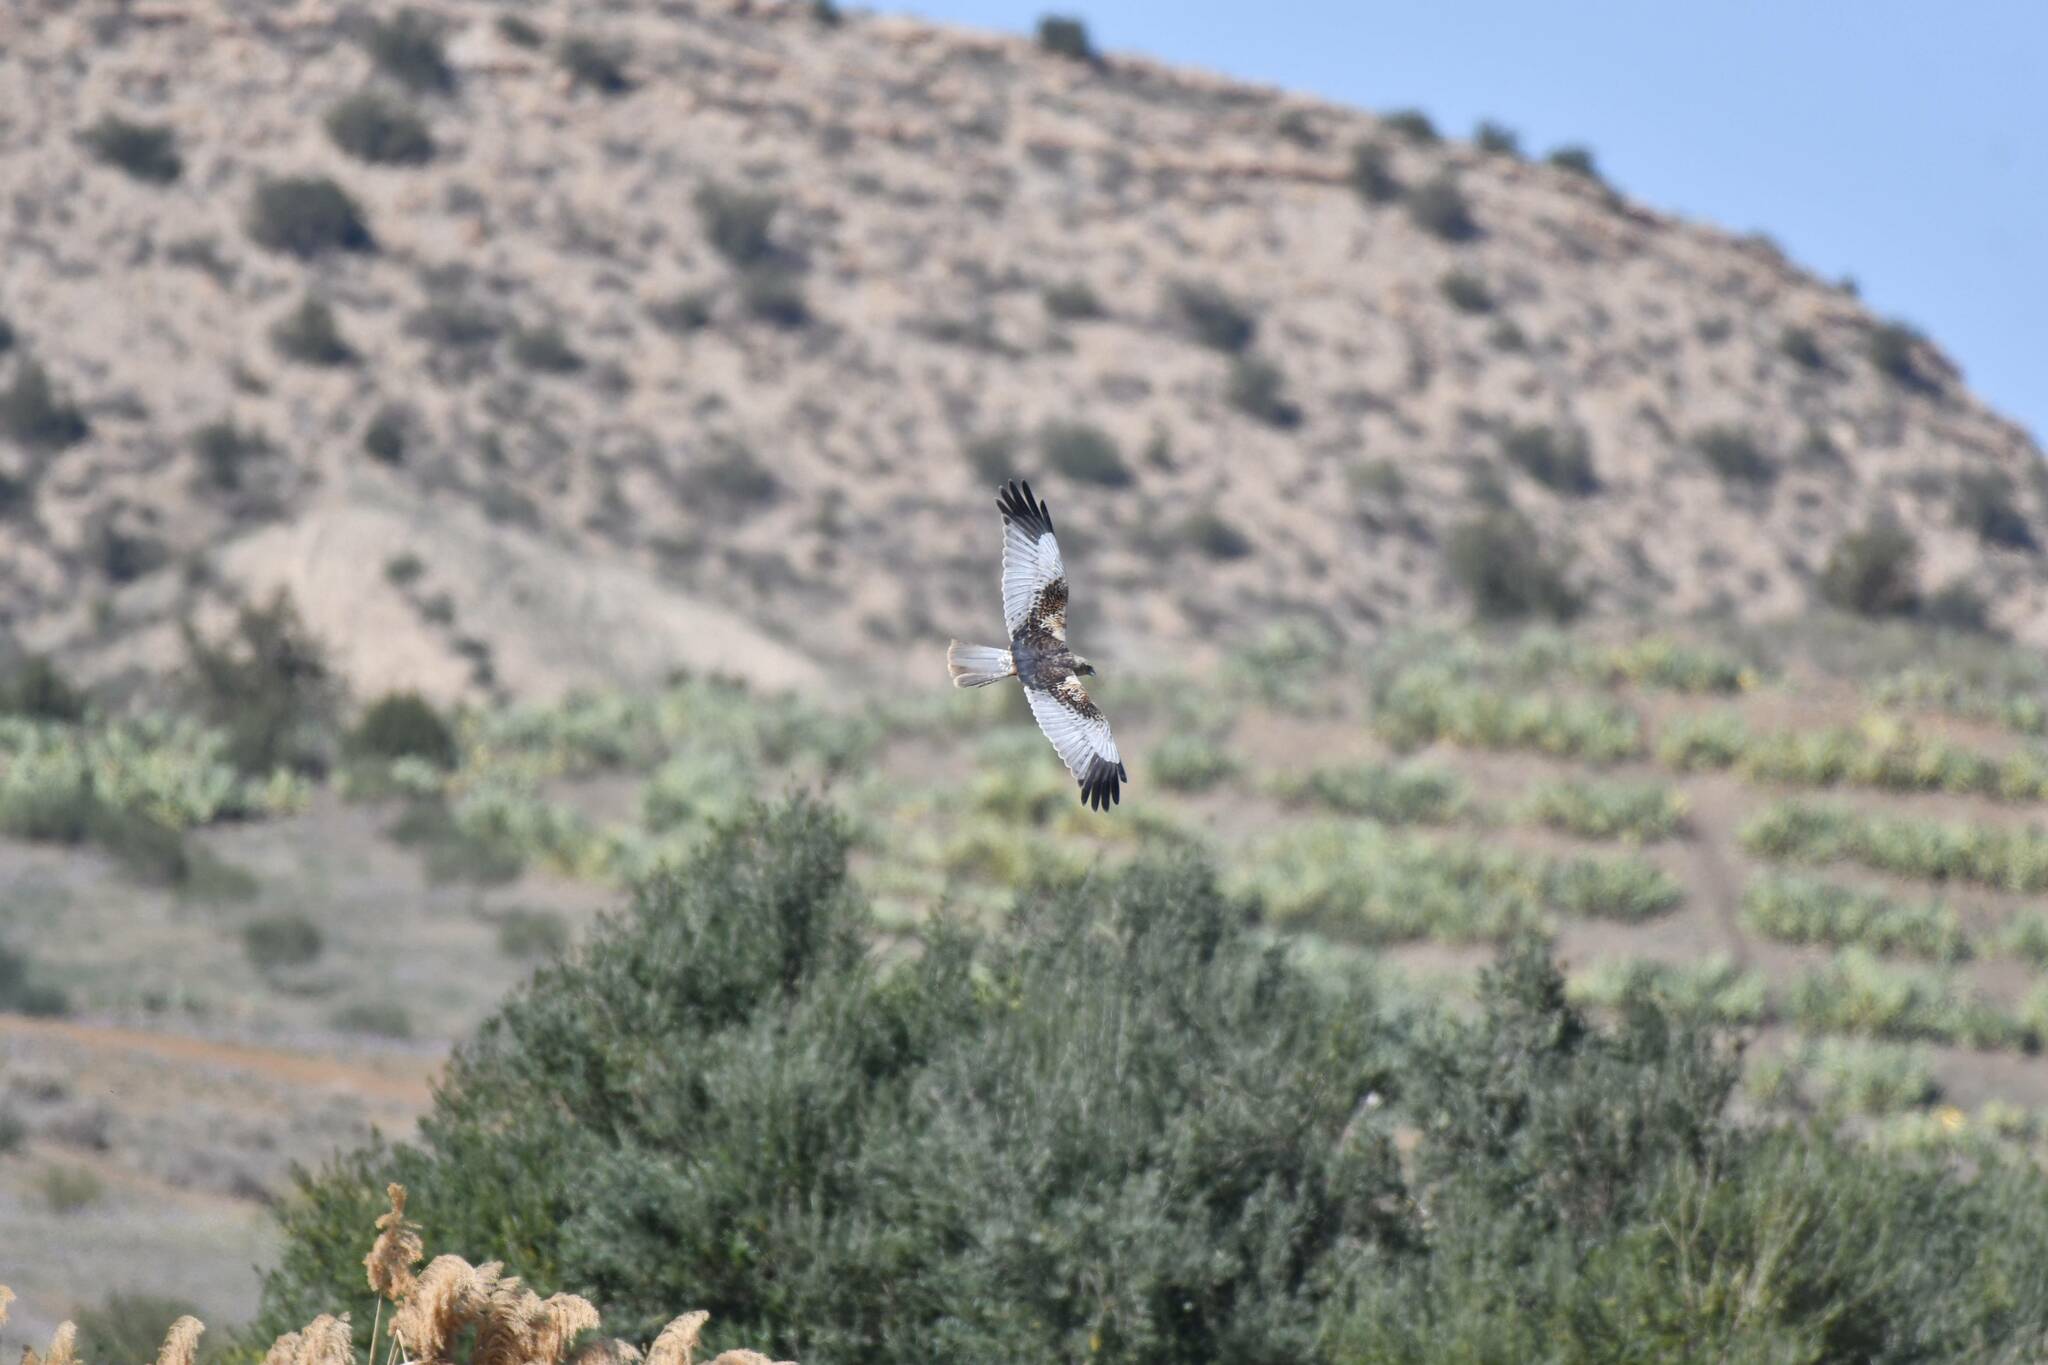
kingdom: Animalia
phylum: Chordata
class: Aves
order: Accipitriformes
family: Accipitridae
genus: Circus
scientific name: Circus aeruginosus
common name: Western marsh harrier
